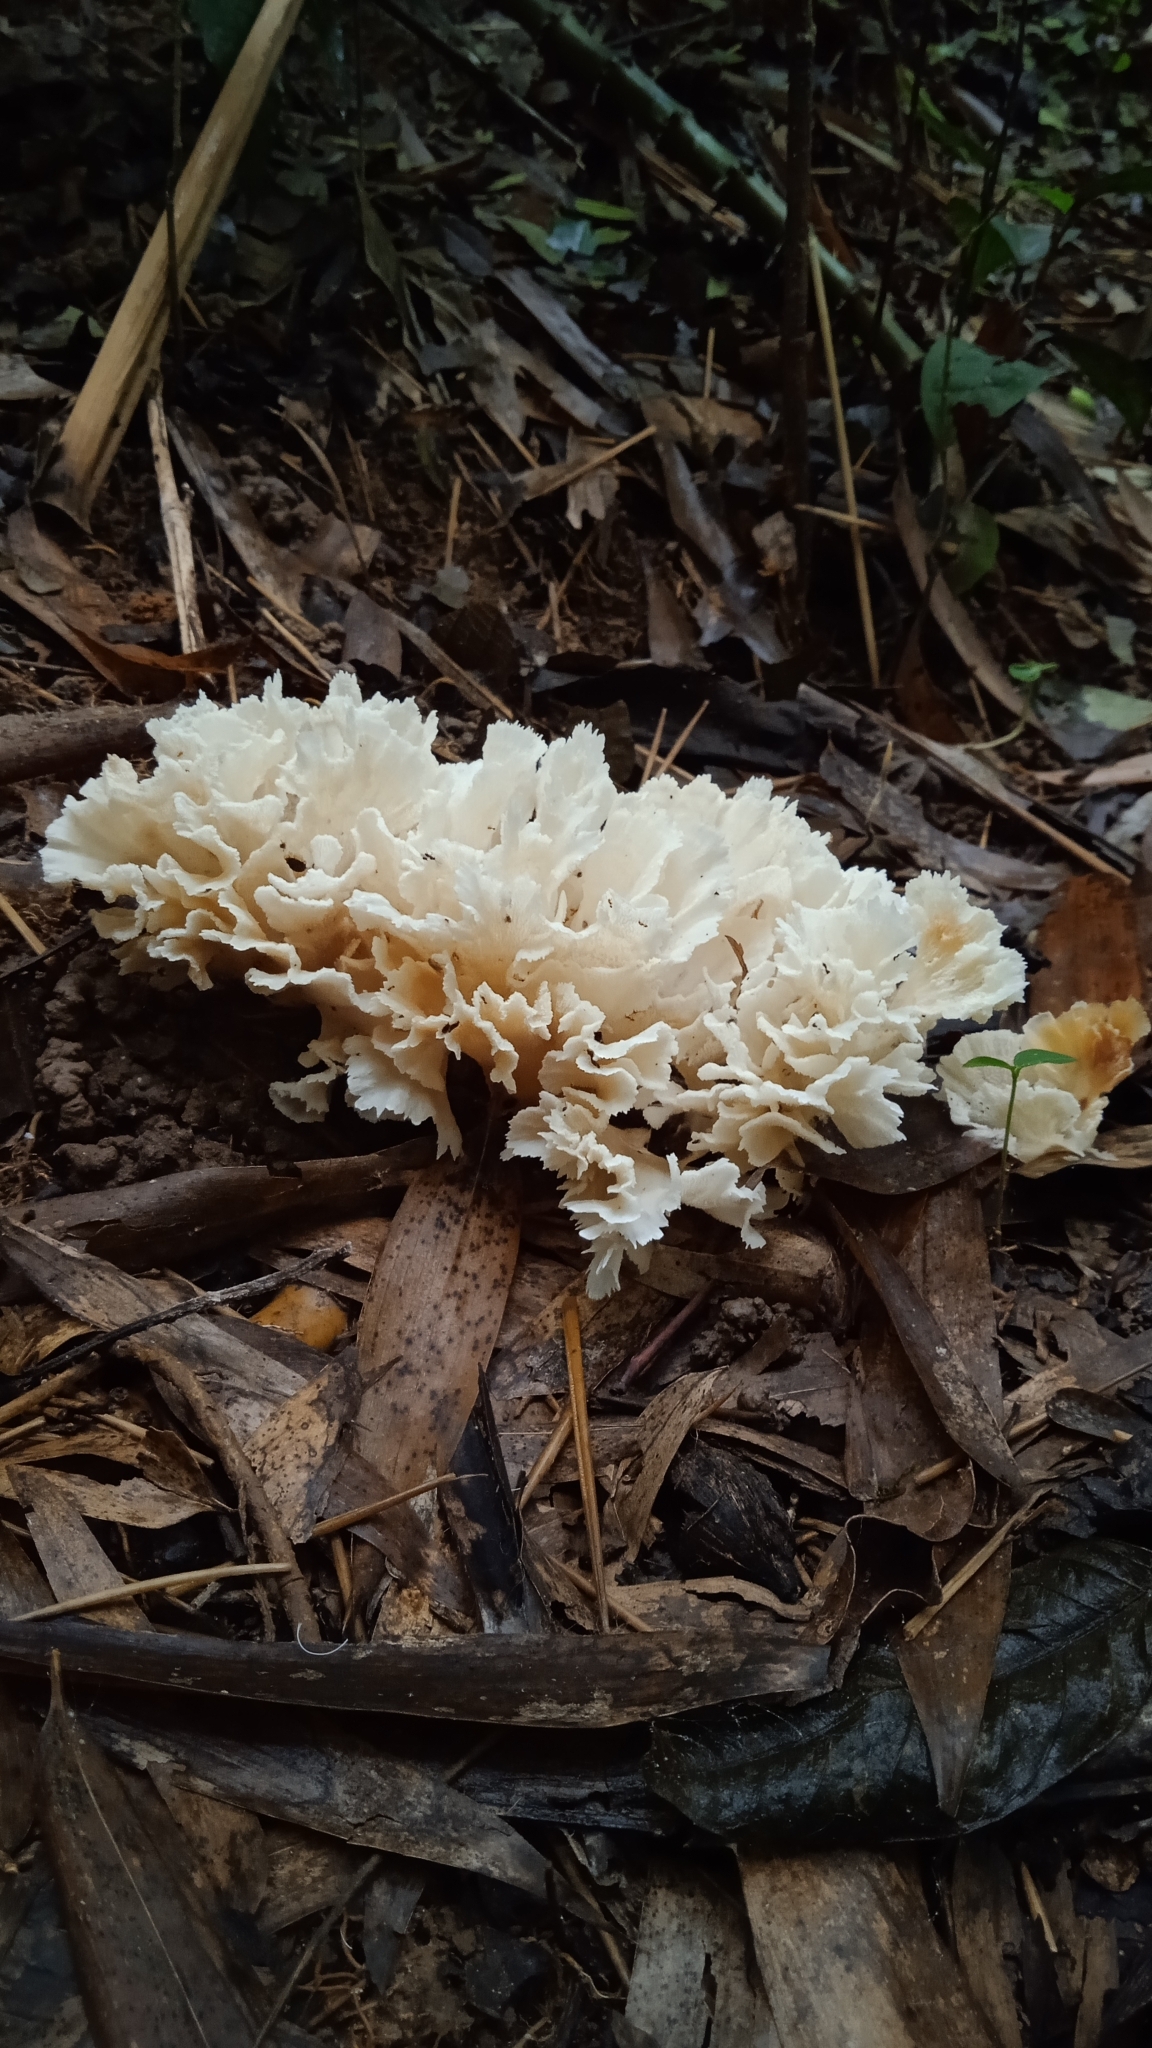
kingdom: Fungi
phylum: Basidiomycota
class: Agaricomycetes
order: Polyporales
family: Irpicaceae
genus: Irpex
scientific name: Irpex rosettiformis
